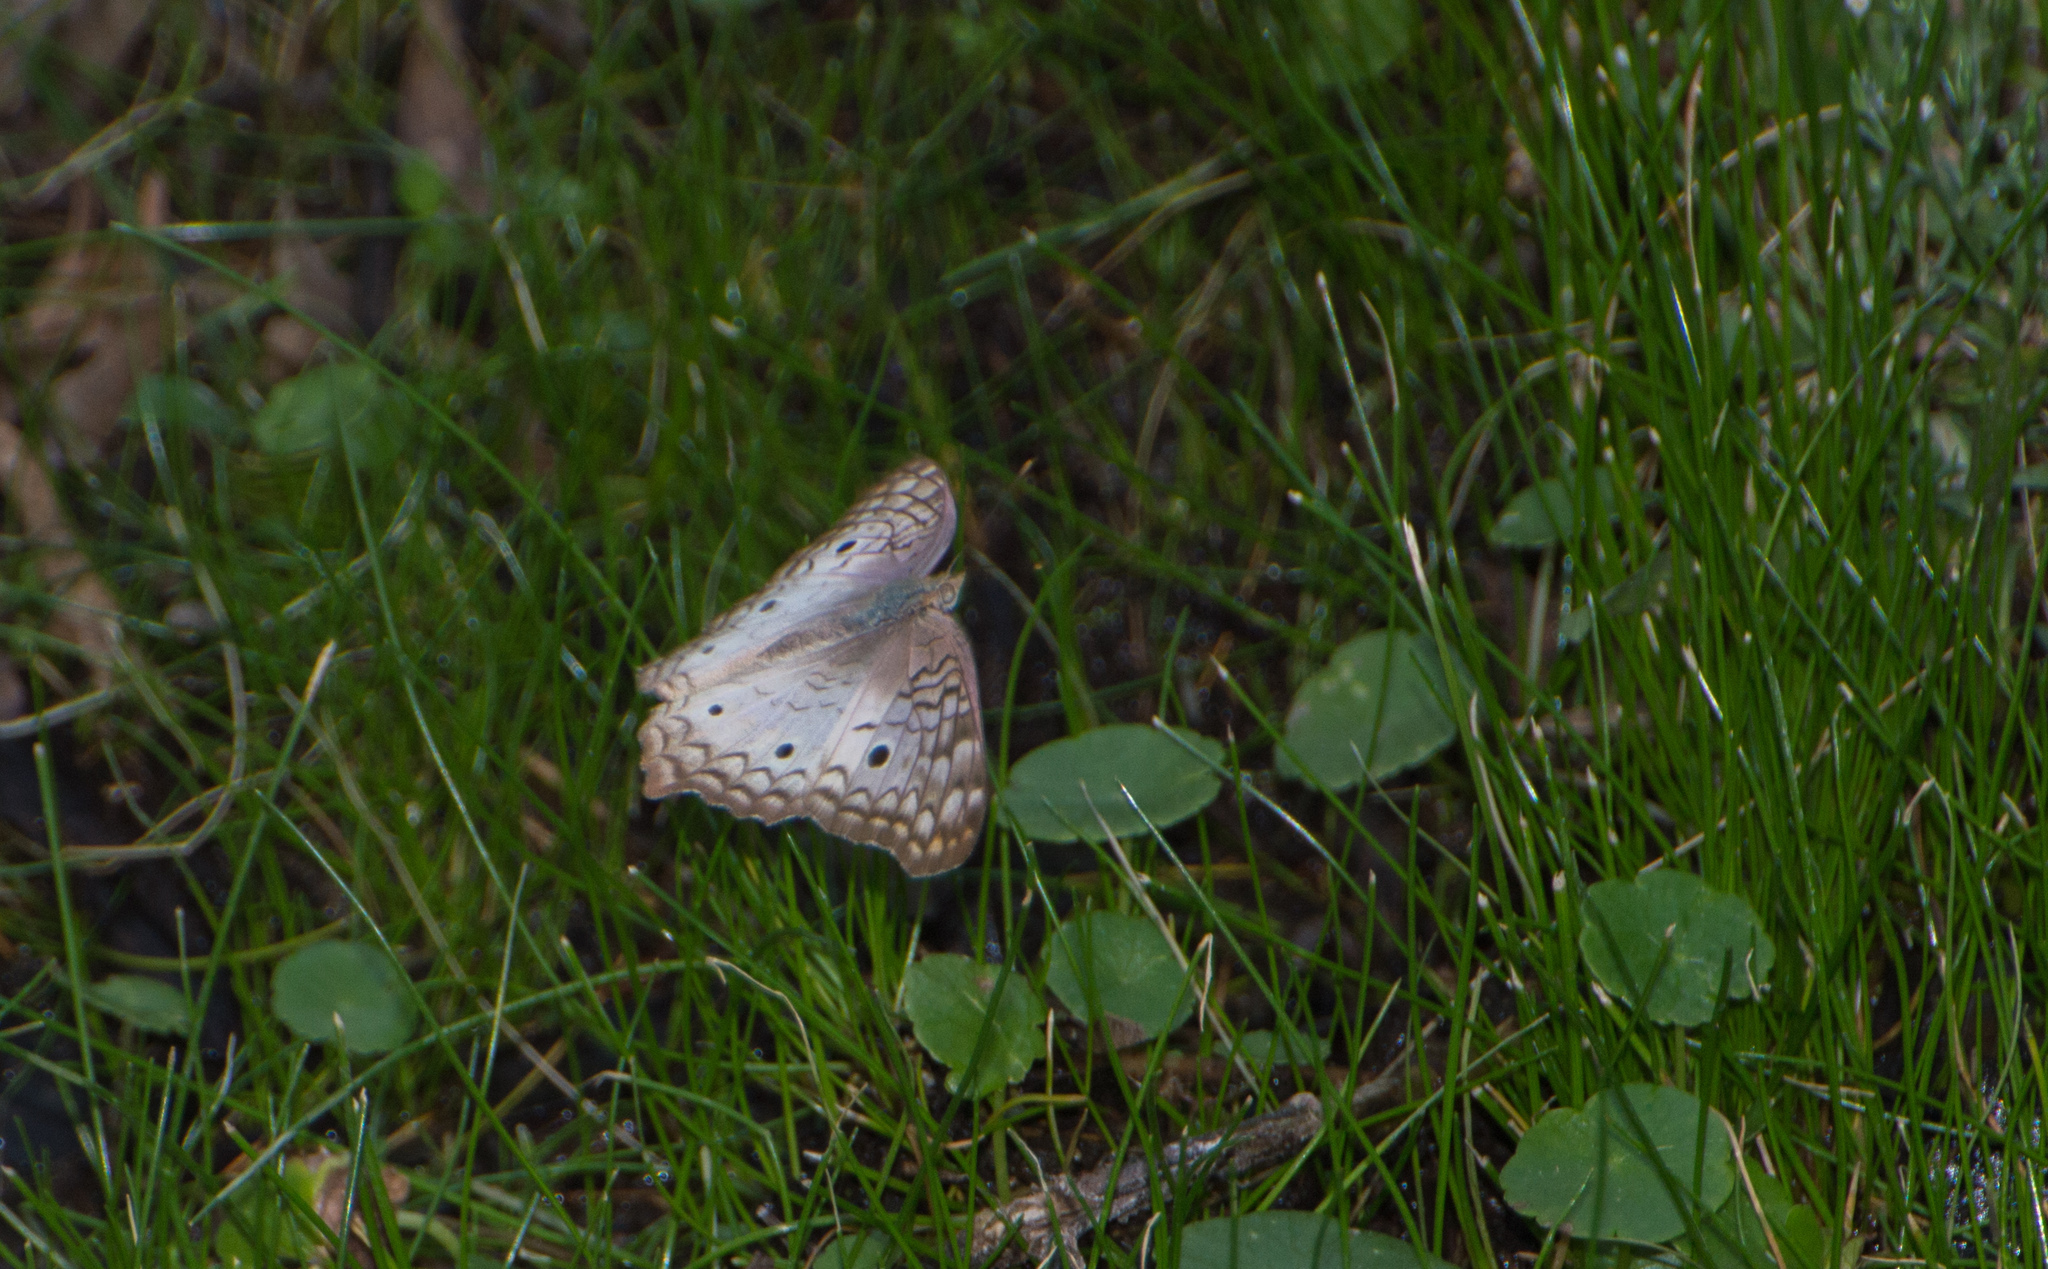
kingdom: Animalia
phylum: Arthropoda
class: Insecta
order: Lepidoptera
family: Nymphalidae
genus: Anartia
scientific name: Anartia jatrophae
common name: White peacock
